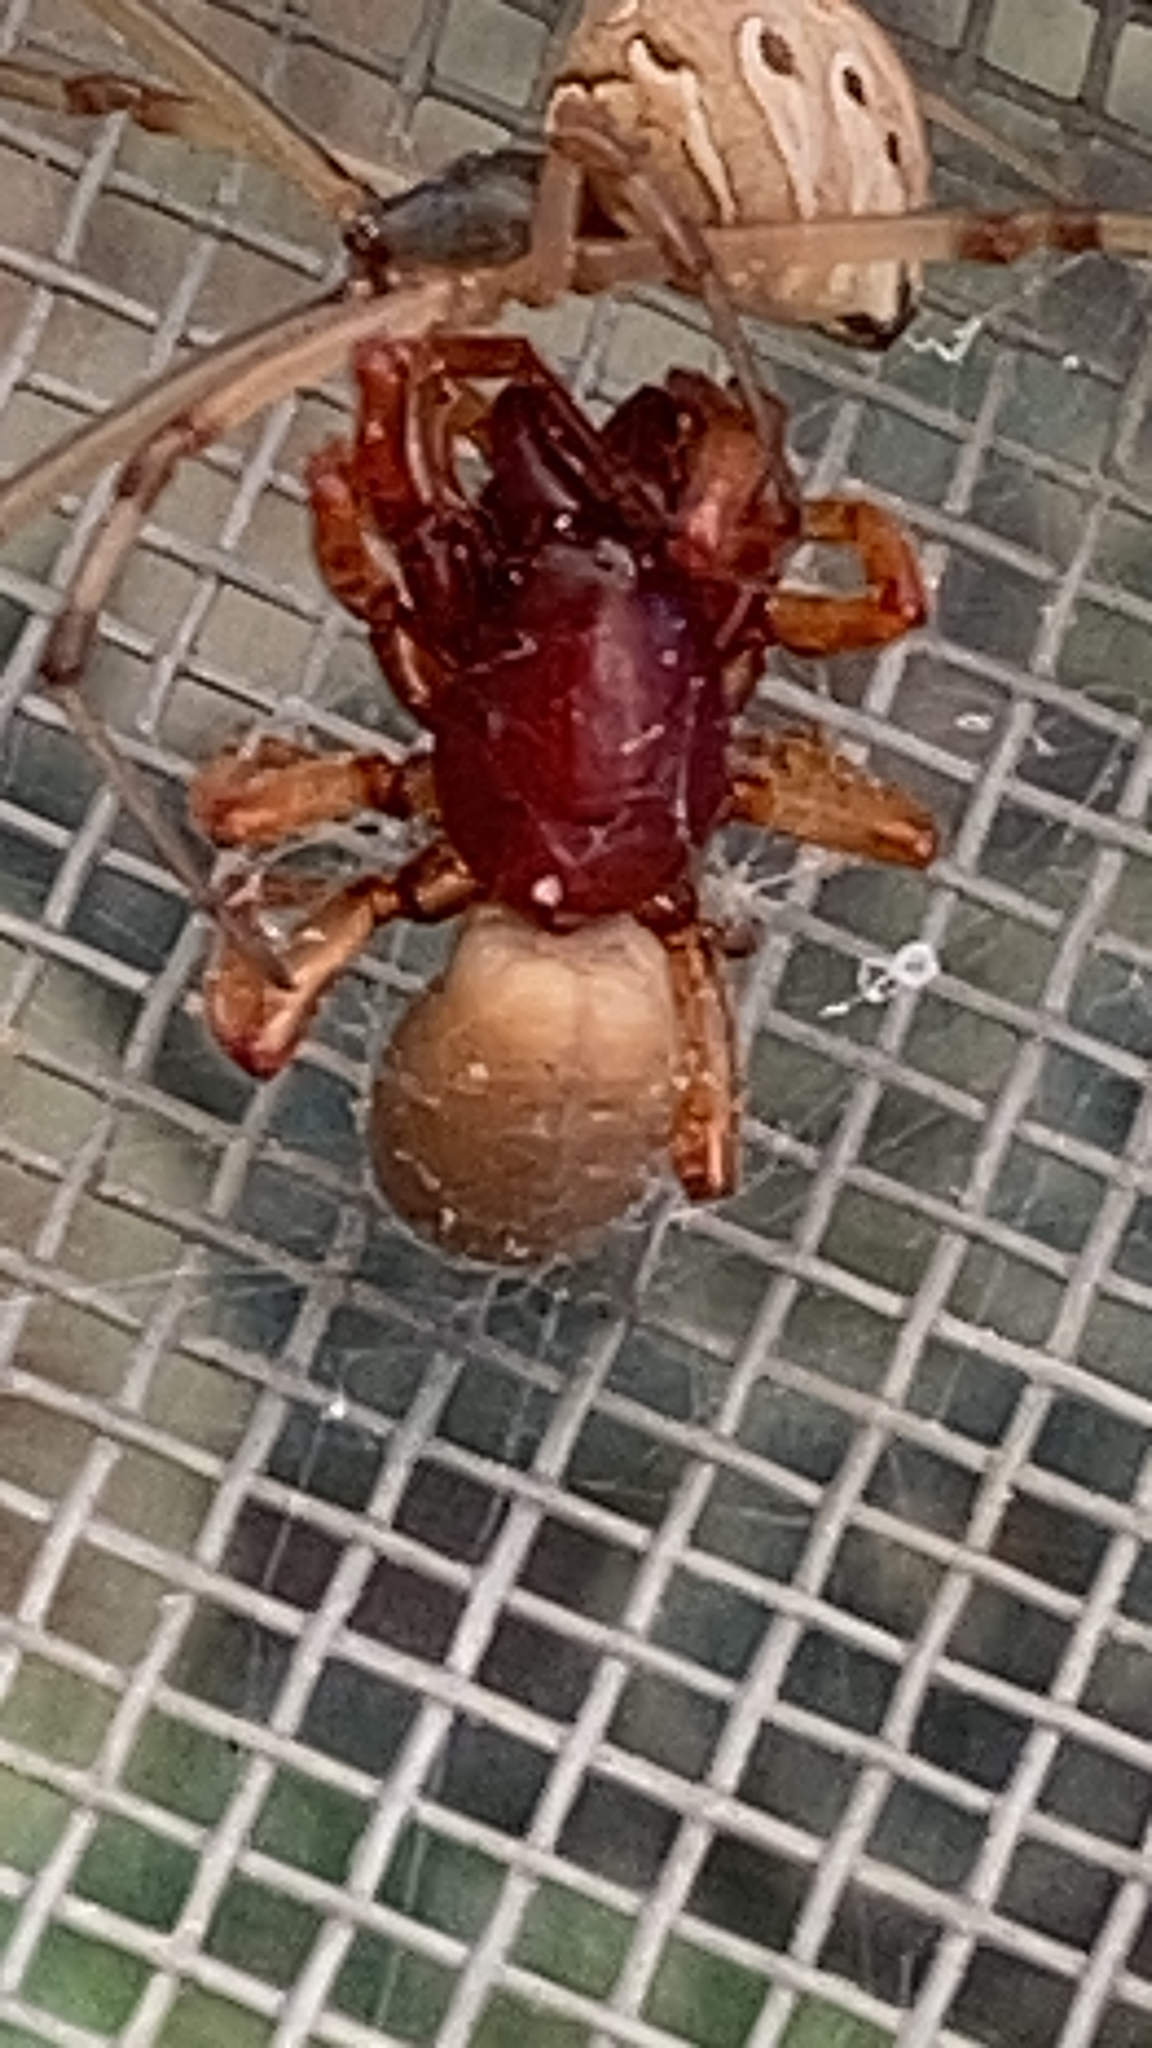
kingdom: Animalia
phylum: Arthropoda
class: Arachnida
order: Araneae
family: Dysderidae
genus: Dysdera
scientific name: Dysdera crocata
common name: Woodlouse spider
